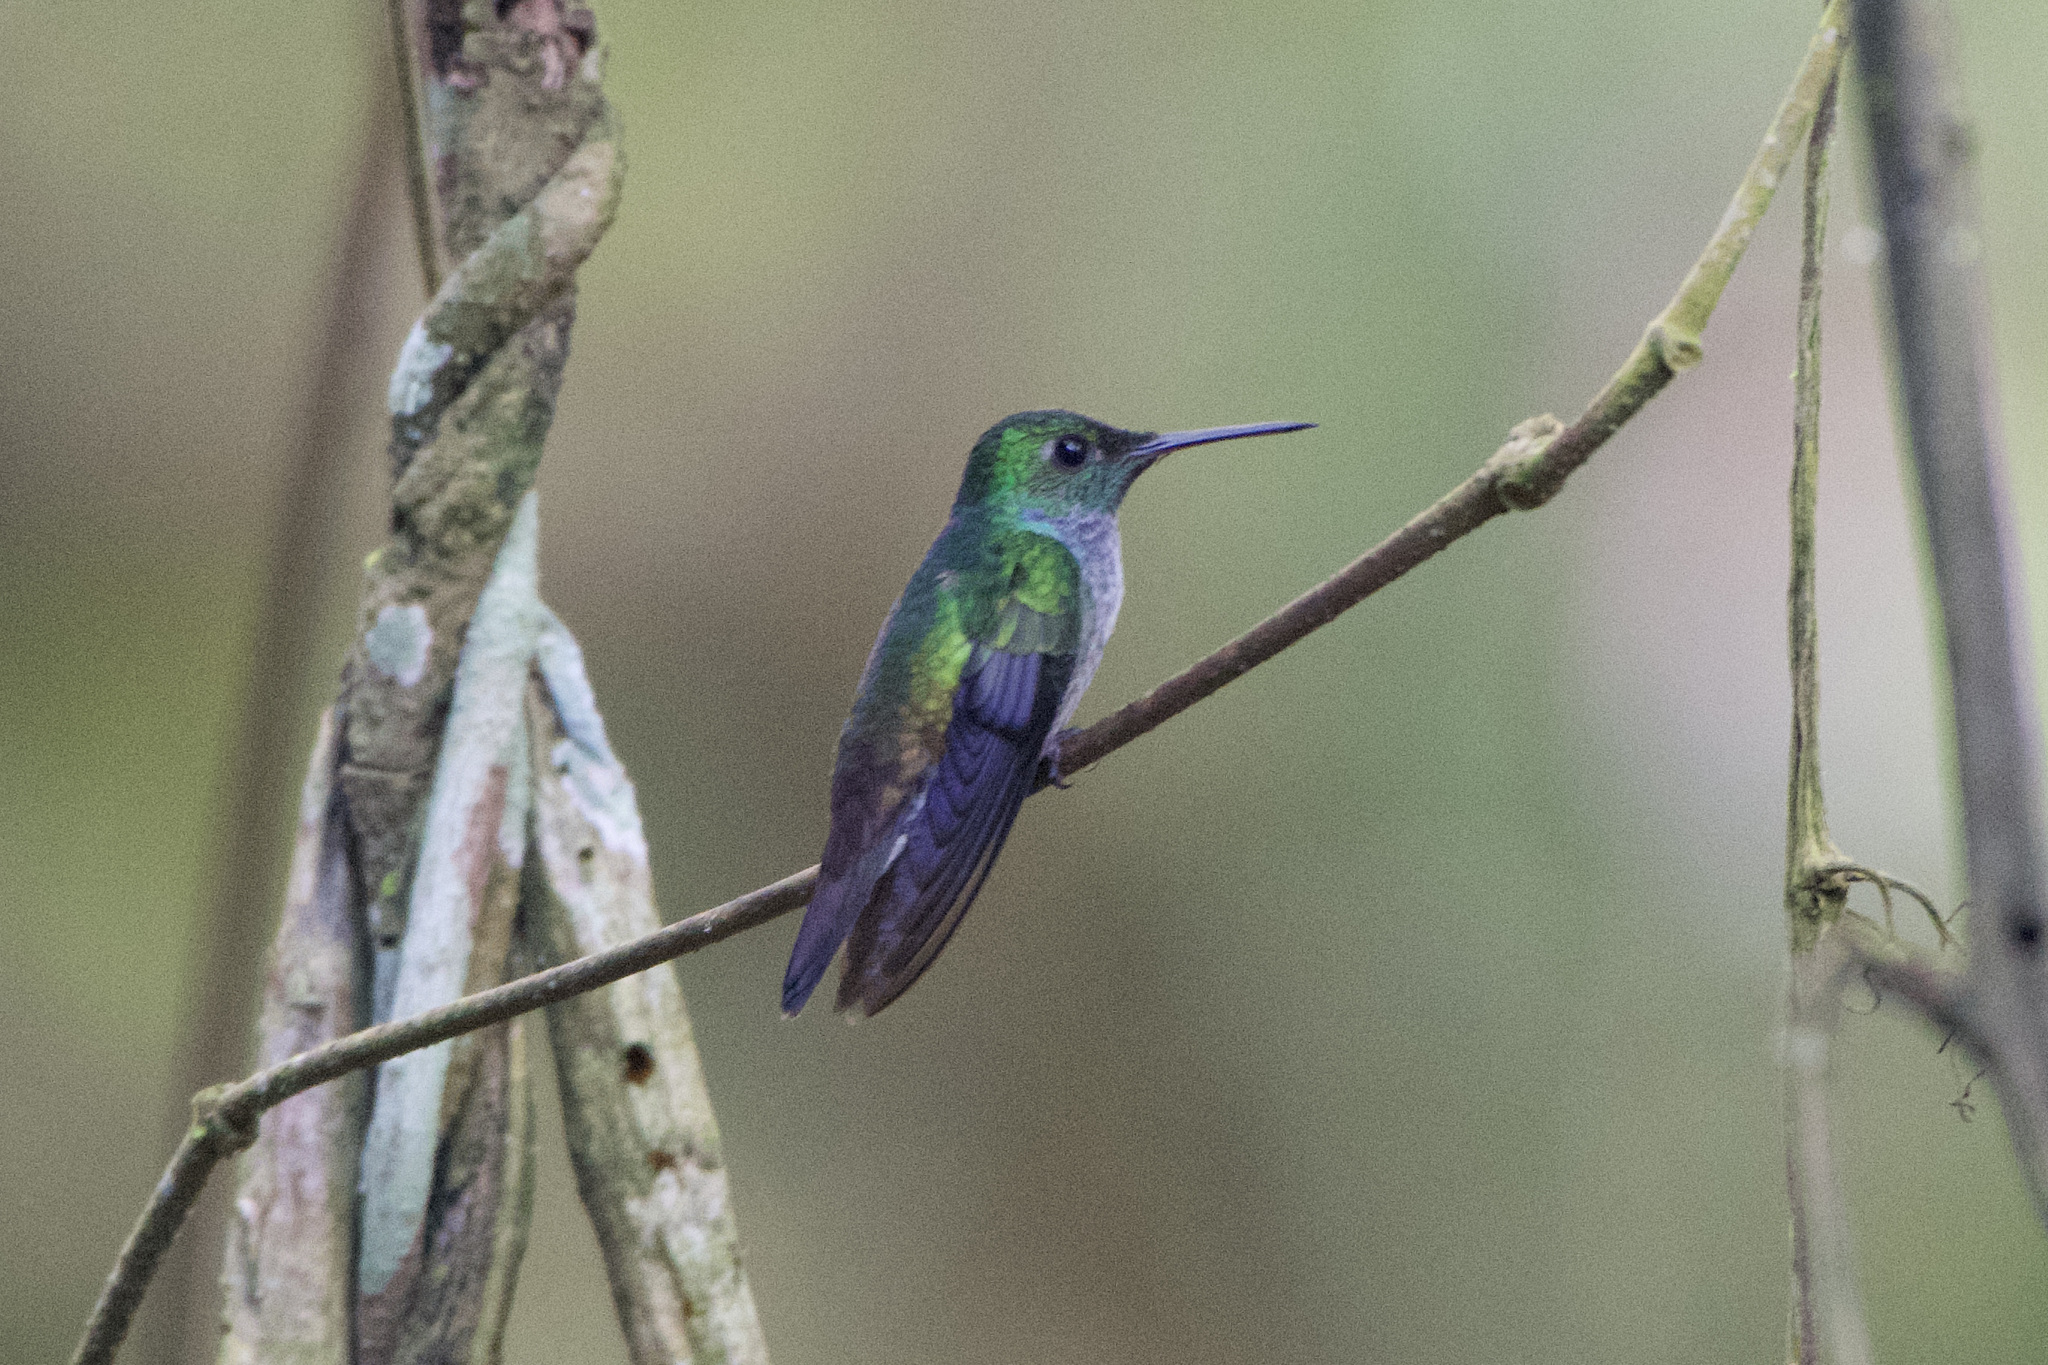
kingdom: Animalia
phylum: Chordata
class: Aves
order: Apodiformes
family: Trochilidae
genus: Polyerata
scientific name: Polyerata amabilis
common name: Blue-chested hummingbird
